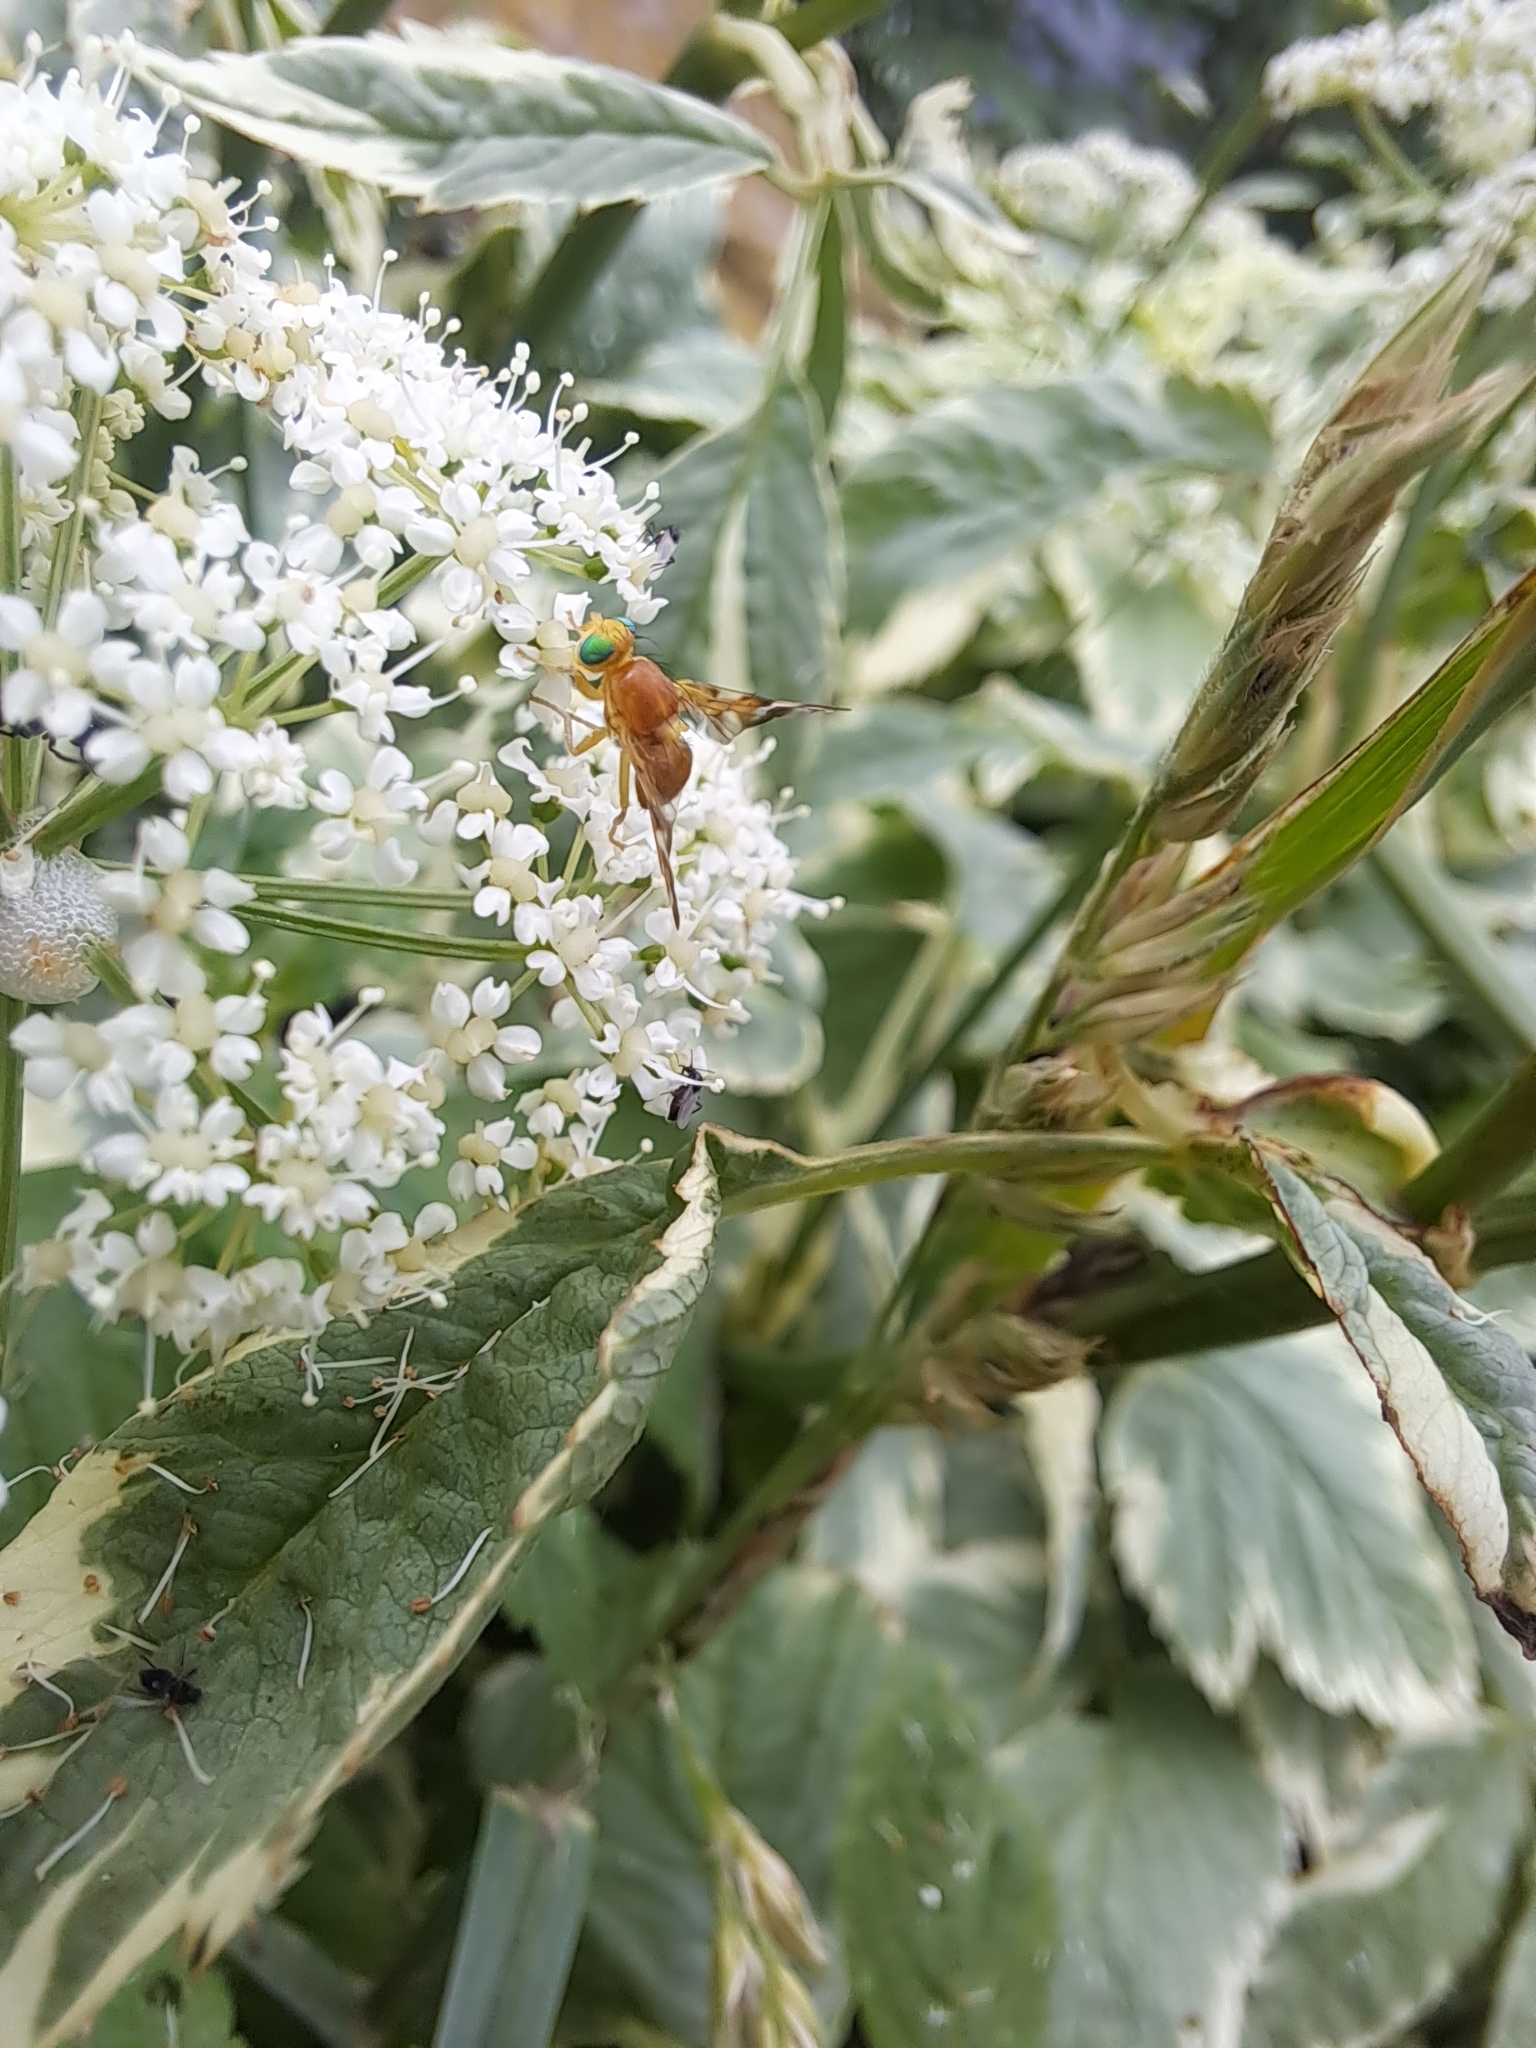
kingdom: Animalia
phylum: Arthropoda
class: Insecta
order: Diptera
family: Tephritidae
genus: Euleia
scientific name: Euleia fratria
